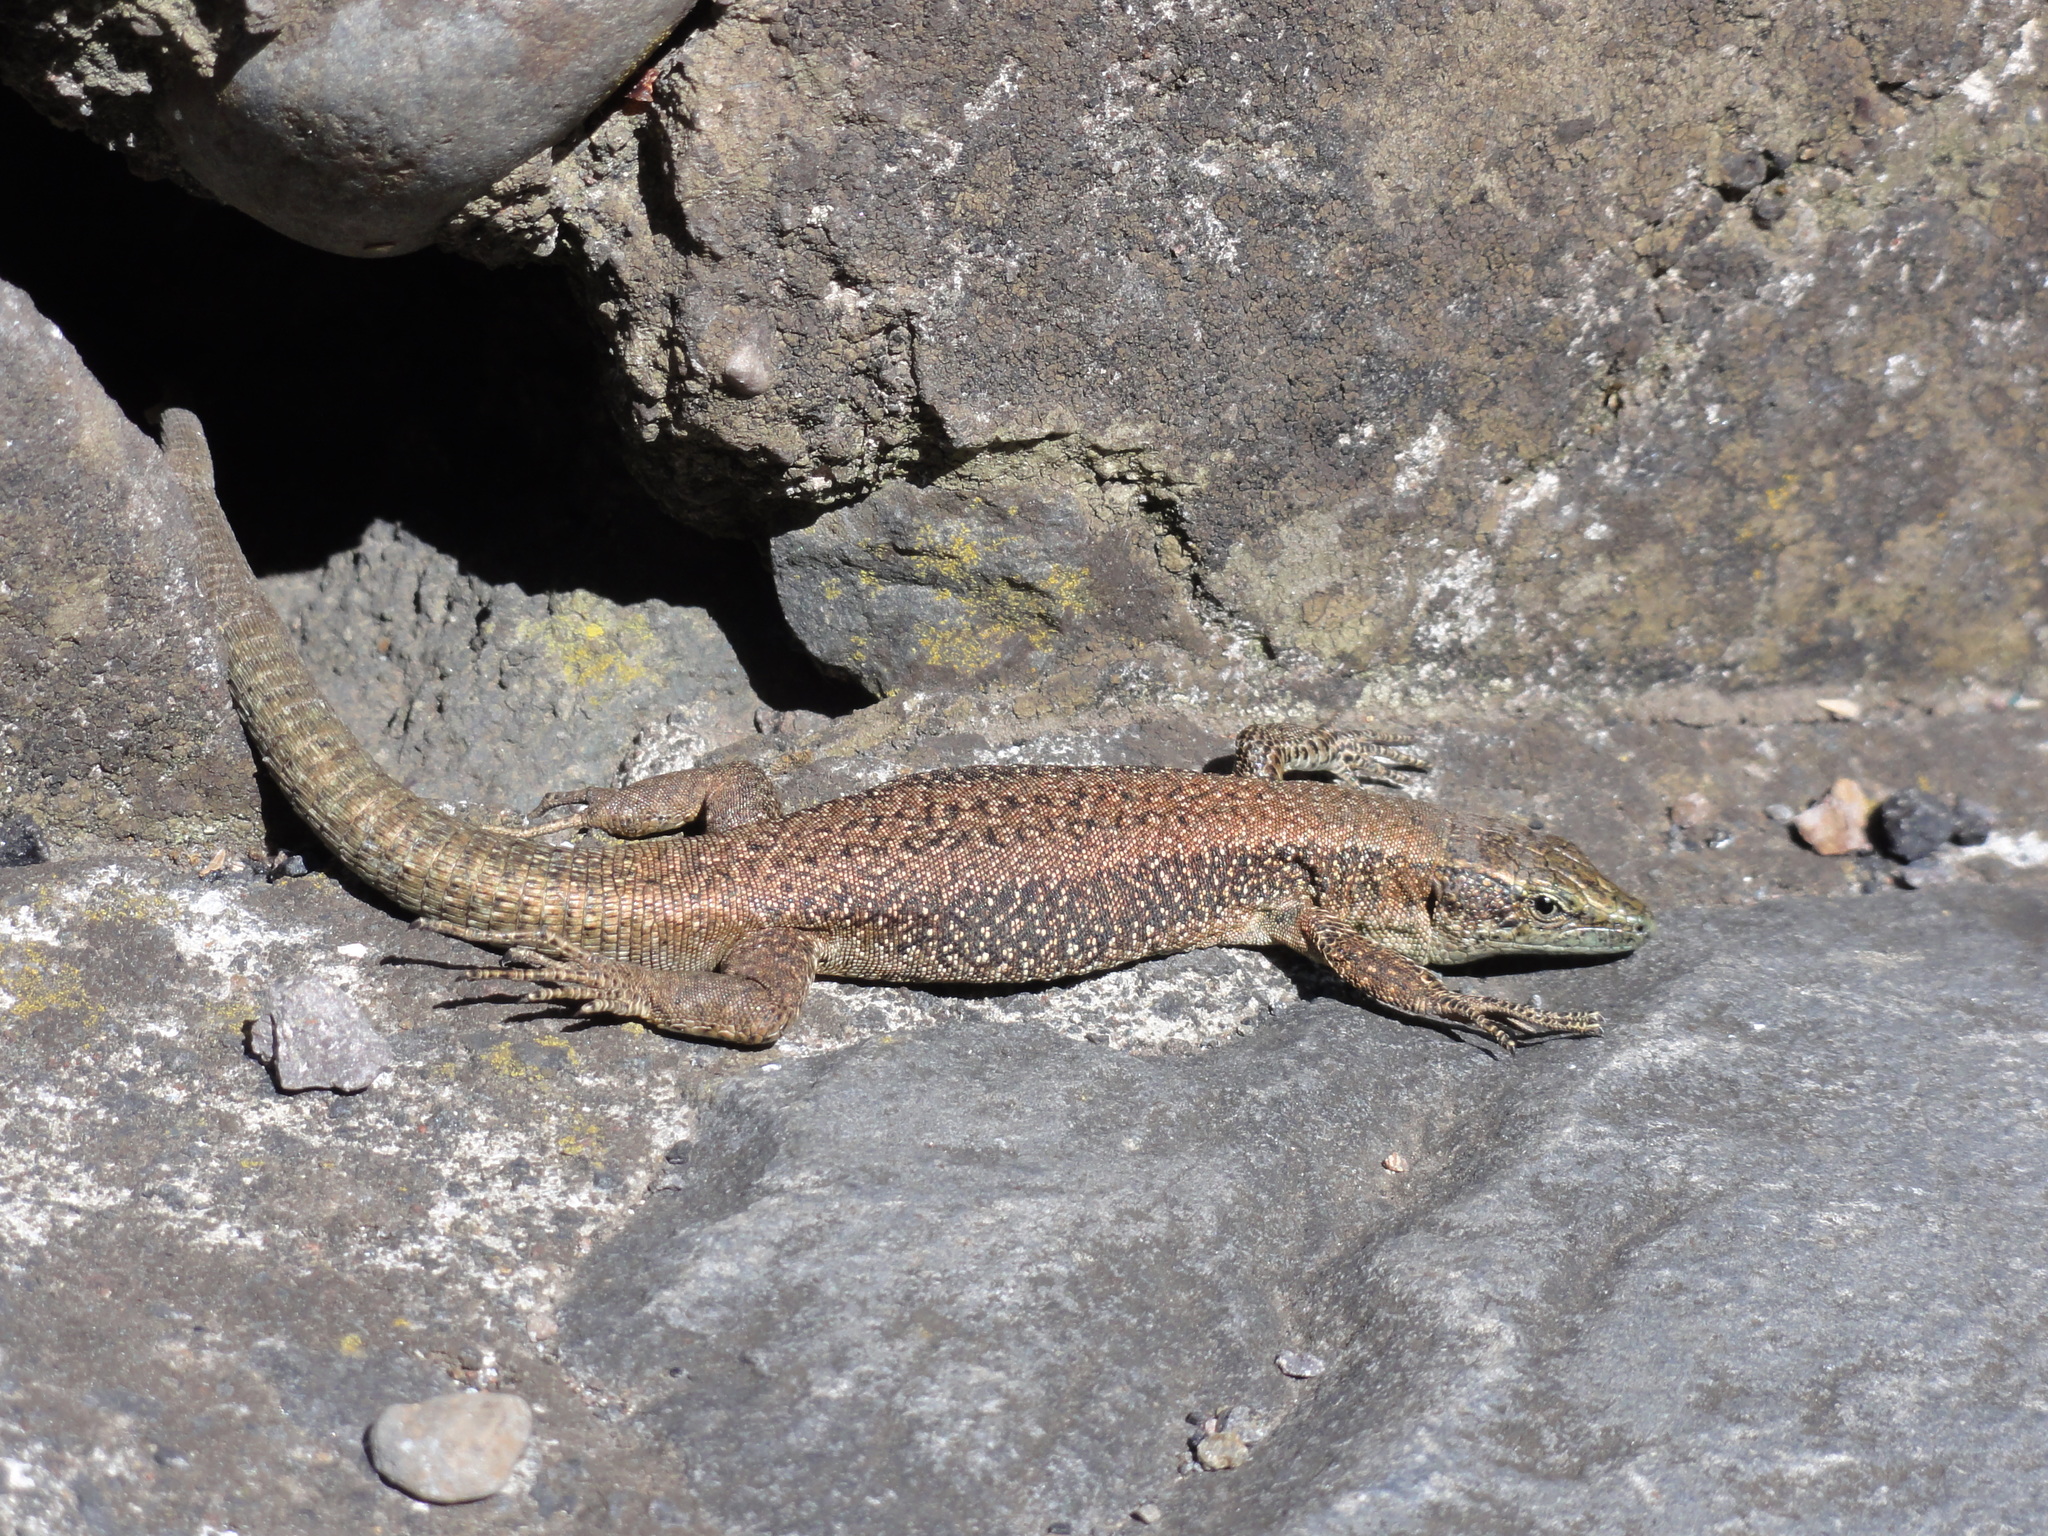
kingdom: Animalia
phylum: Chordata
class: Squamata
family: Lacertidae
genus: Teira
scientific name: Teira dugesii
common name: Madeira lizard
